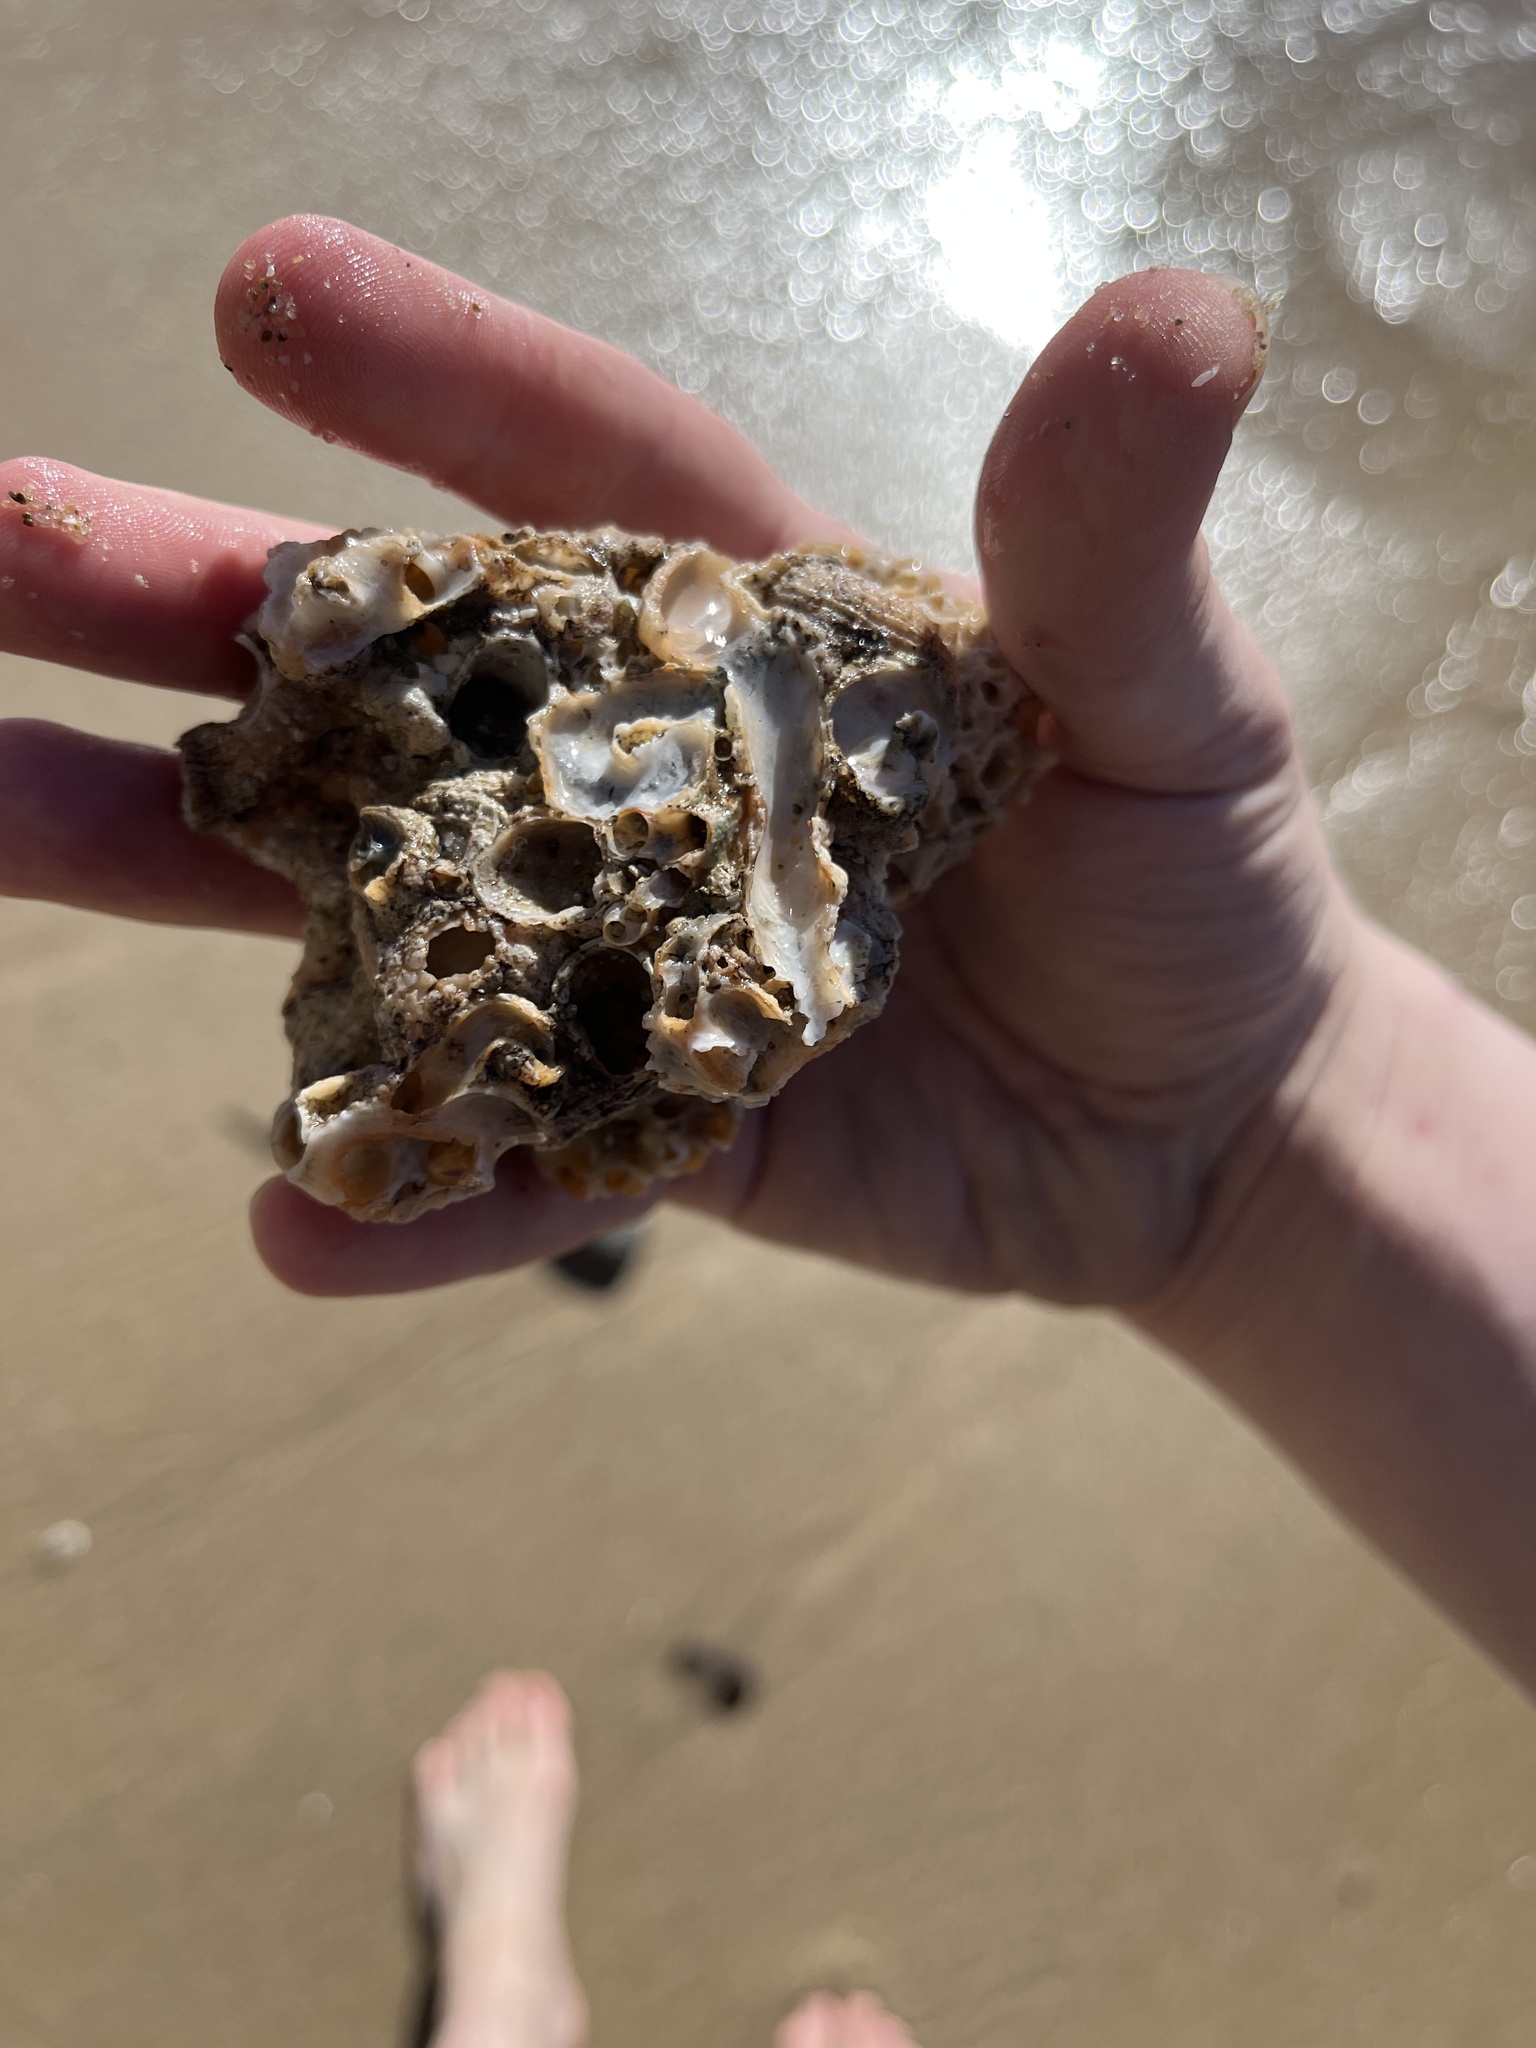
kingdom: Animalia
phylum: Mollusca
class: Gastropoda
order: Littorinimorpha
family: Vermetidae
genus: Thylacodes
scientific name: Thylacodes squamigerus
